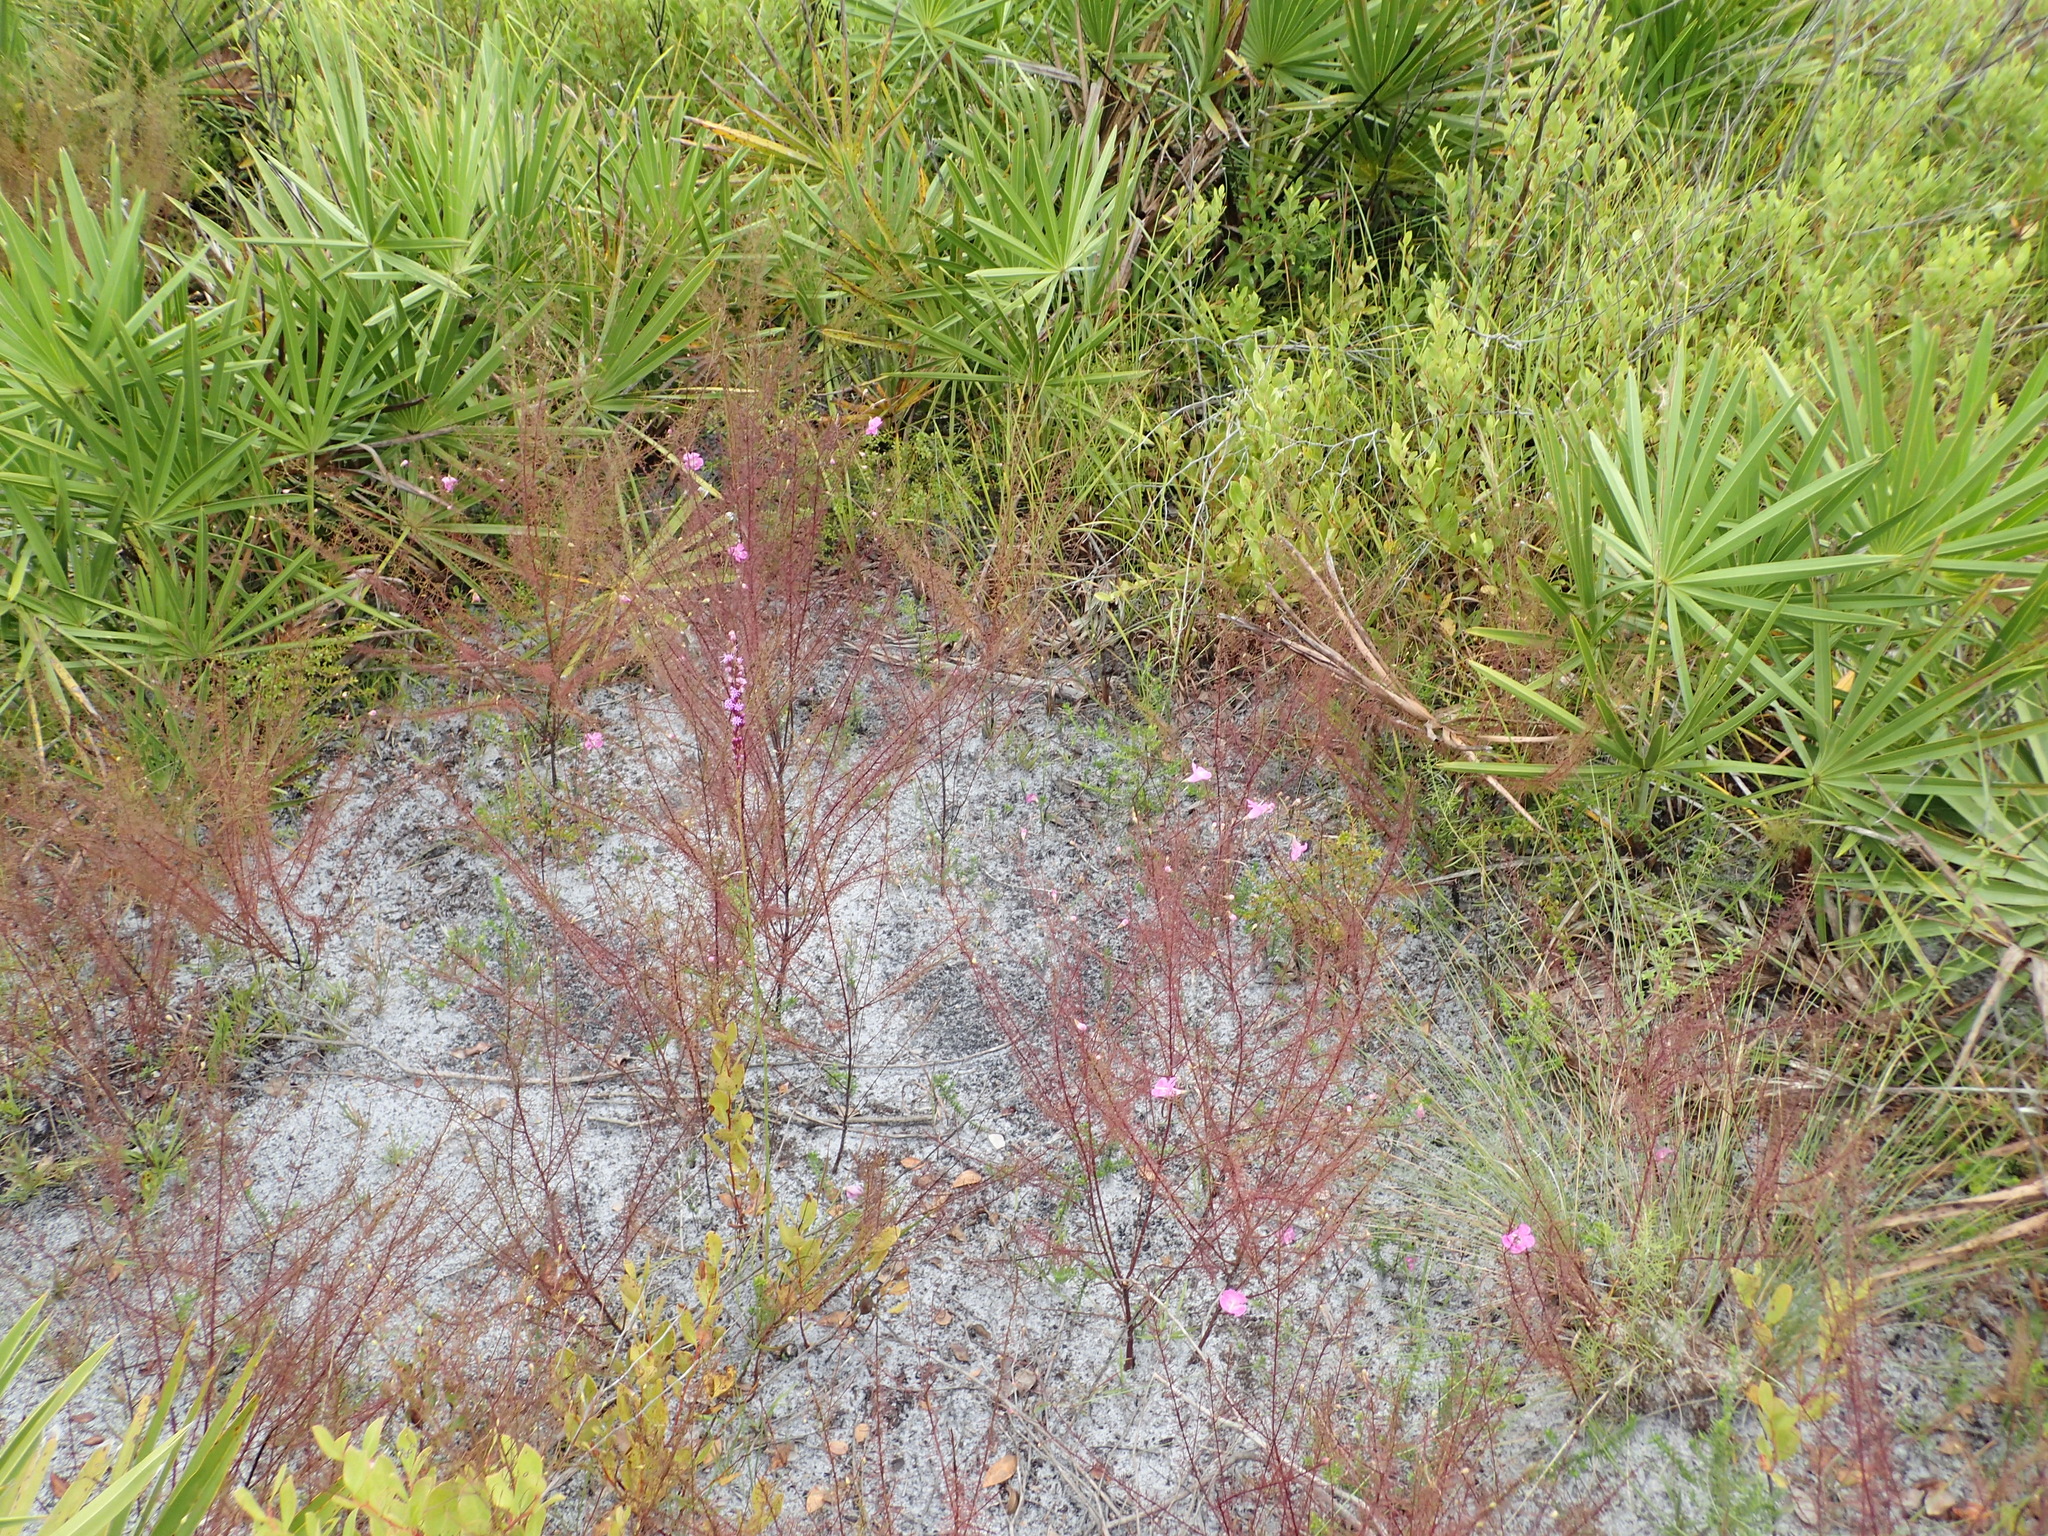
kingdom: Plantae
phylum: Tracheophyta
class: Magnoliopsida
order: Lamiales
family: Orobanchaceae
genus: Agalinis
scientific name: Agalinis filifolia
